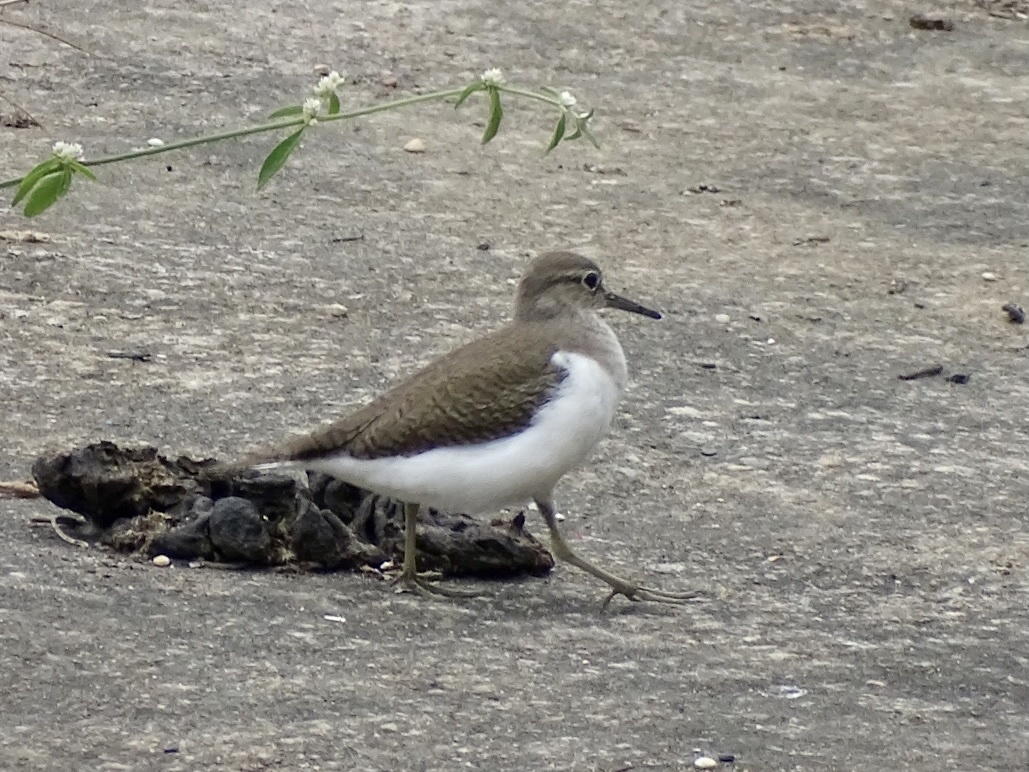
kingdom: Animalia
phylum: Chordata
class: Aves
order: Charadriiformes
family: Scolopacidae
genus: Actitis
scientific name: Actitis hypoleucos
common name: Common sandpiper
